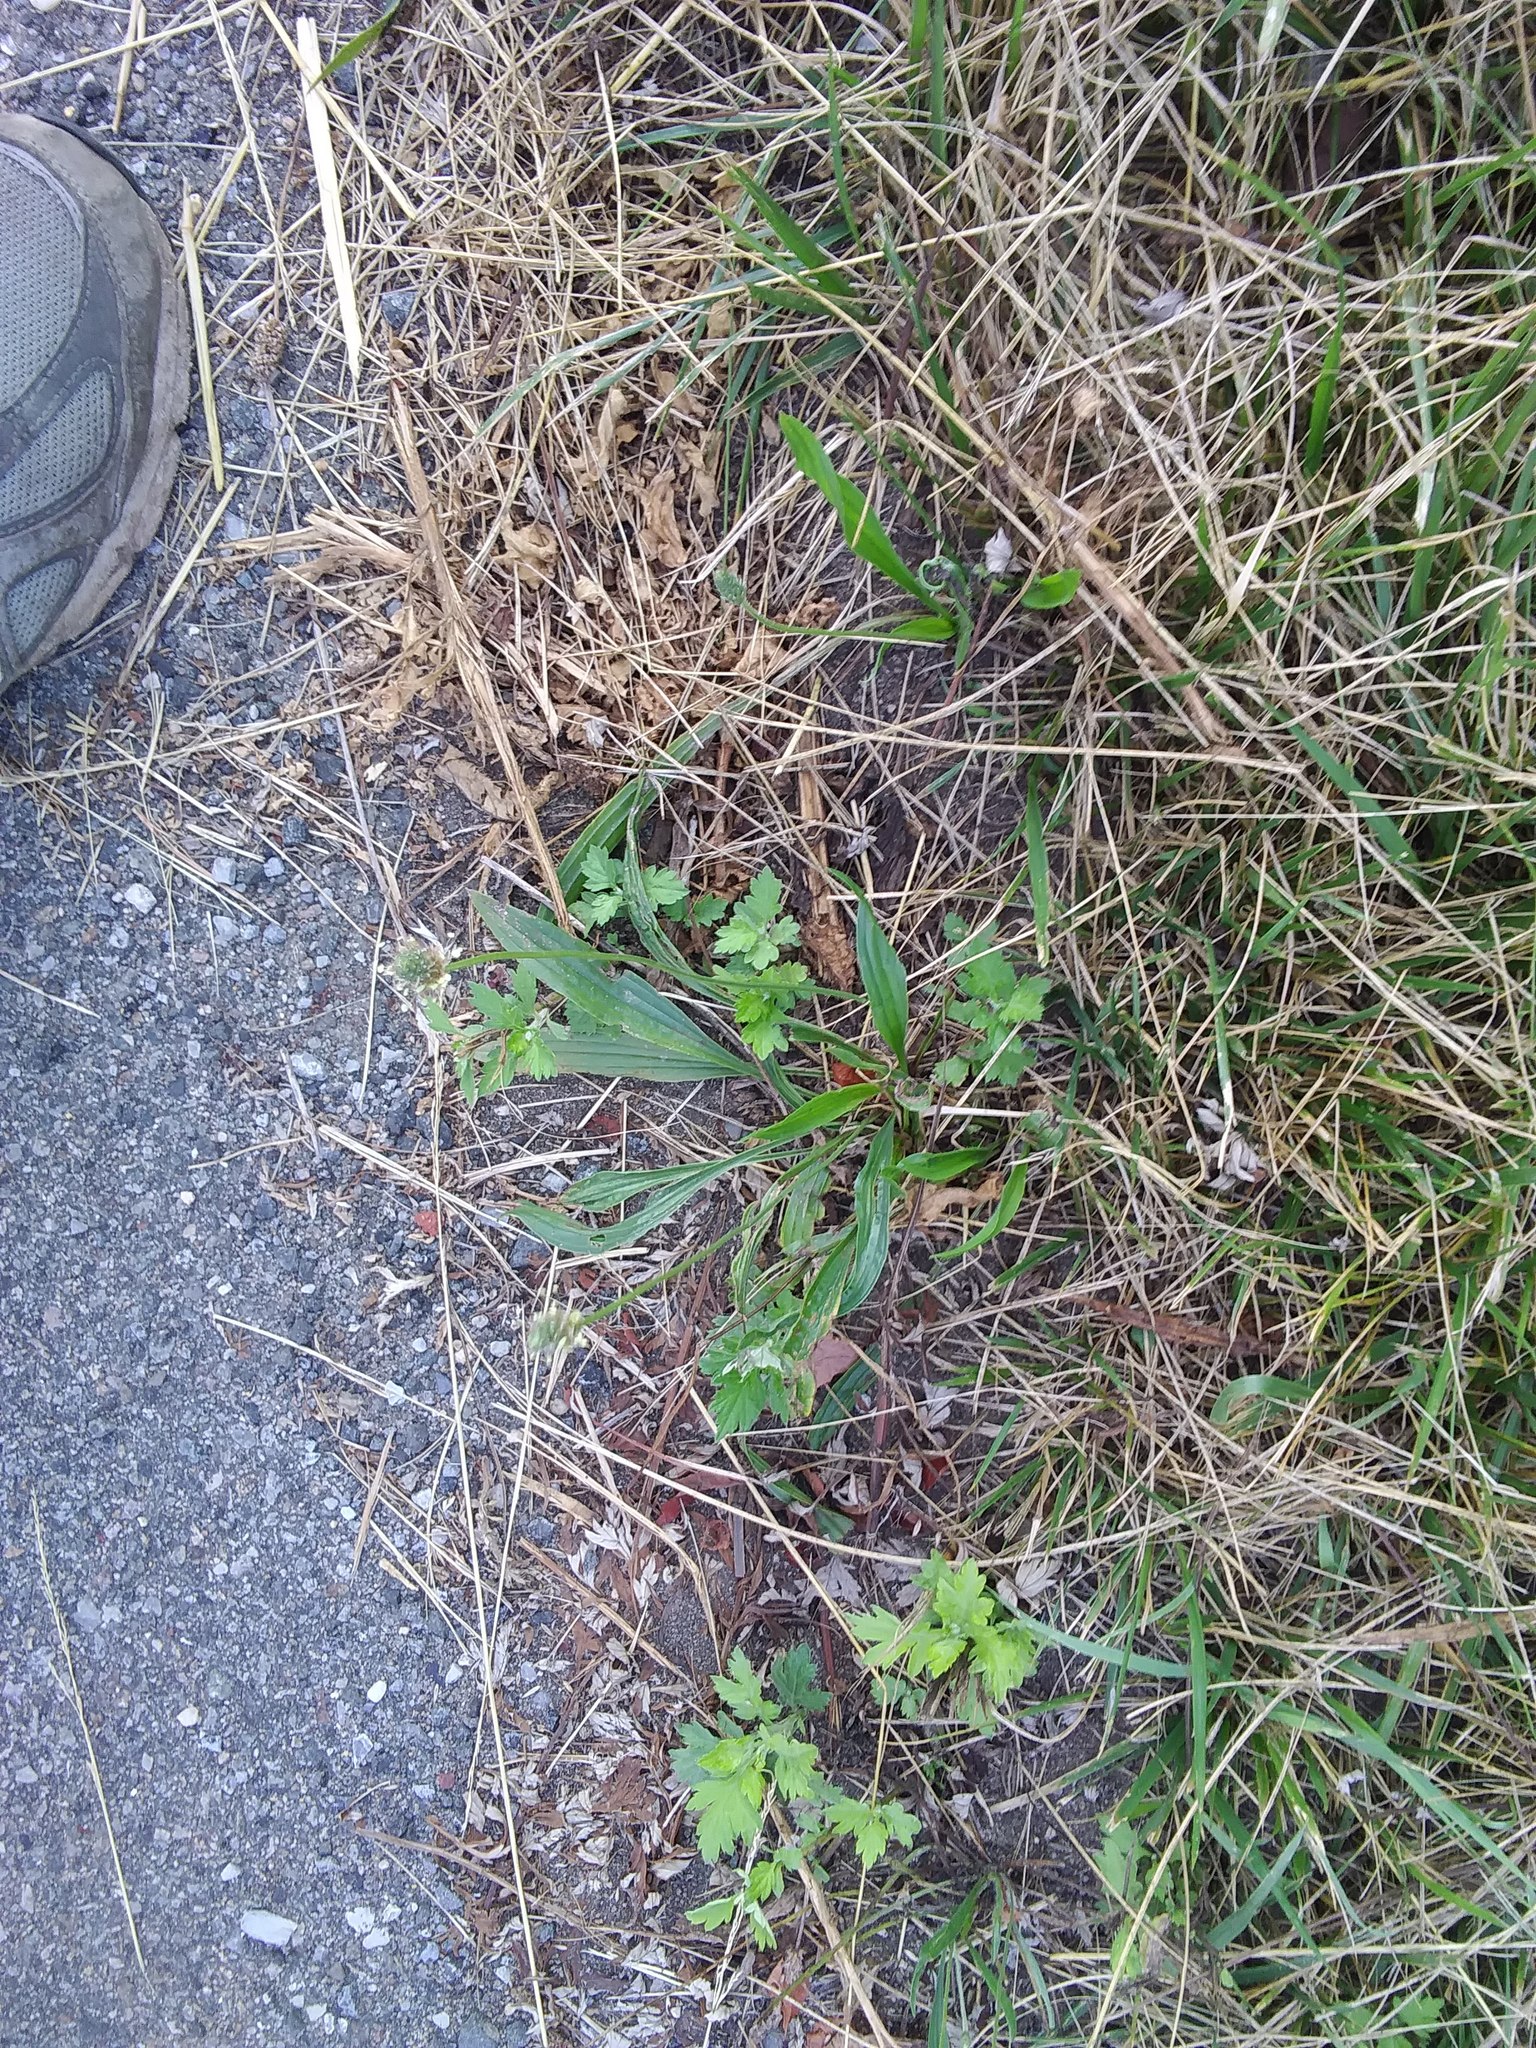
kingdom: Plantae
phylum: Tracheophyta
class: Magnoliopsida
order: Lamiales
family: Plantaginaceae
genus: Plantago
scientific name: Plantago lanceolata
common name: Ribwort plantain
